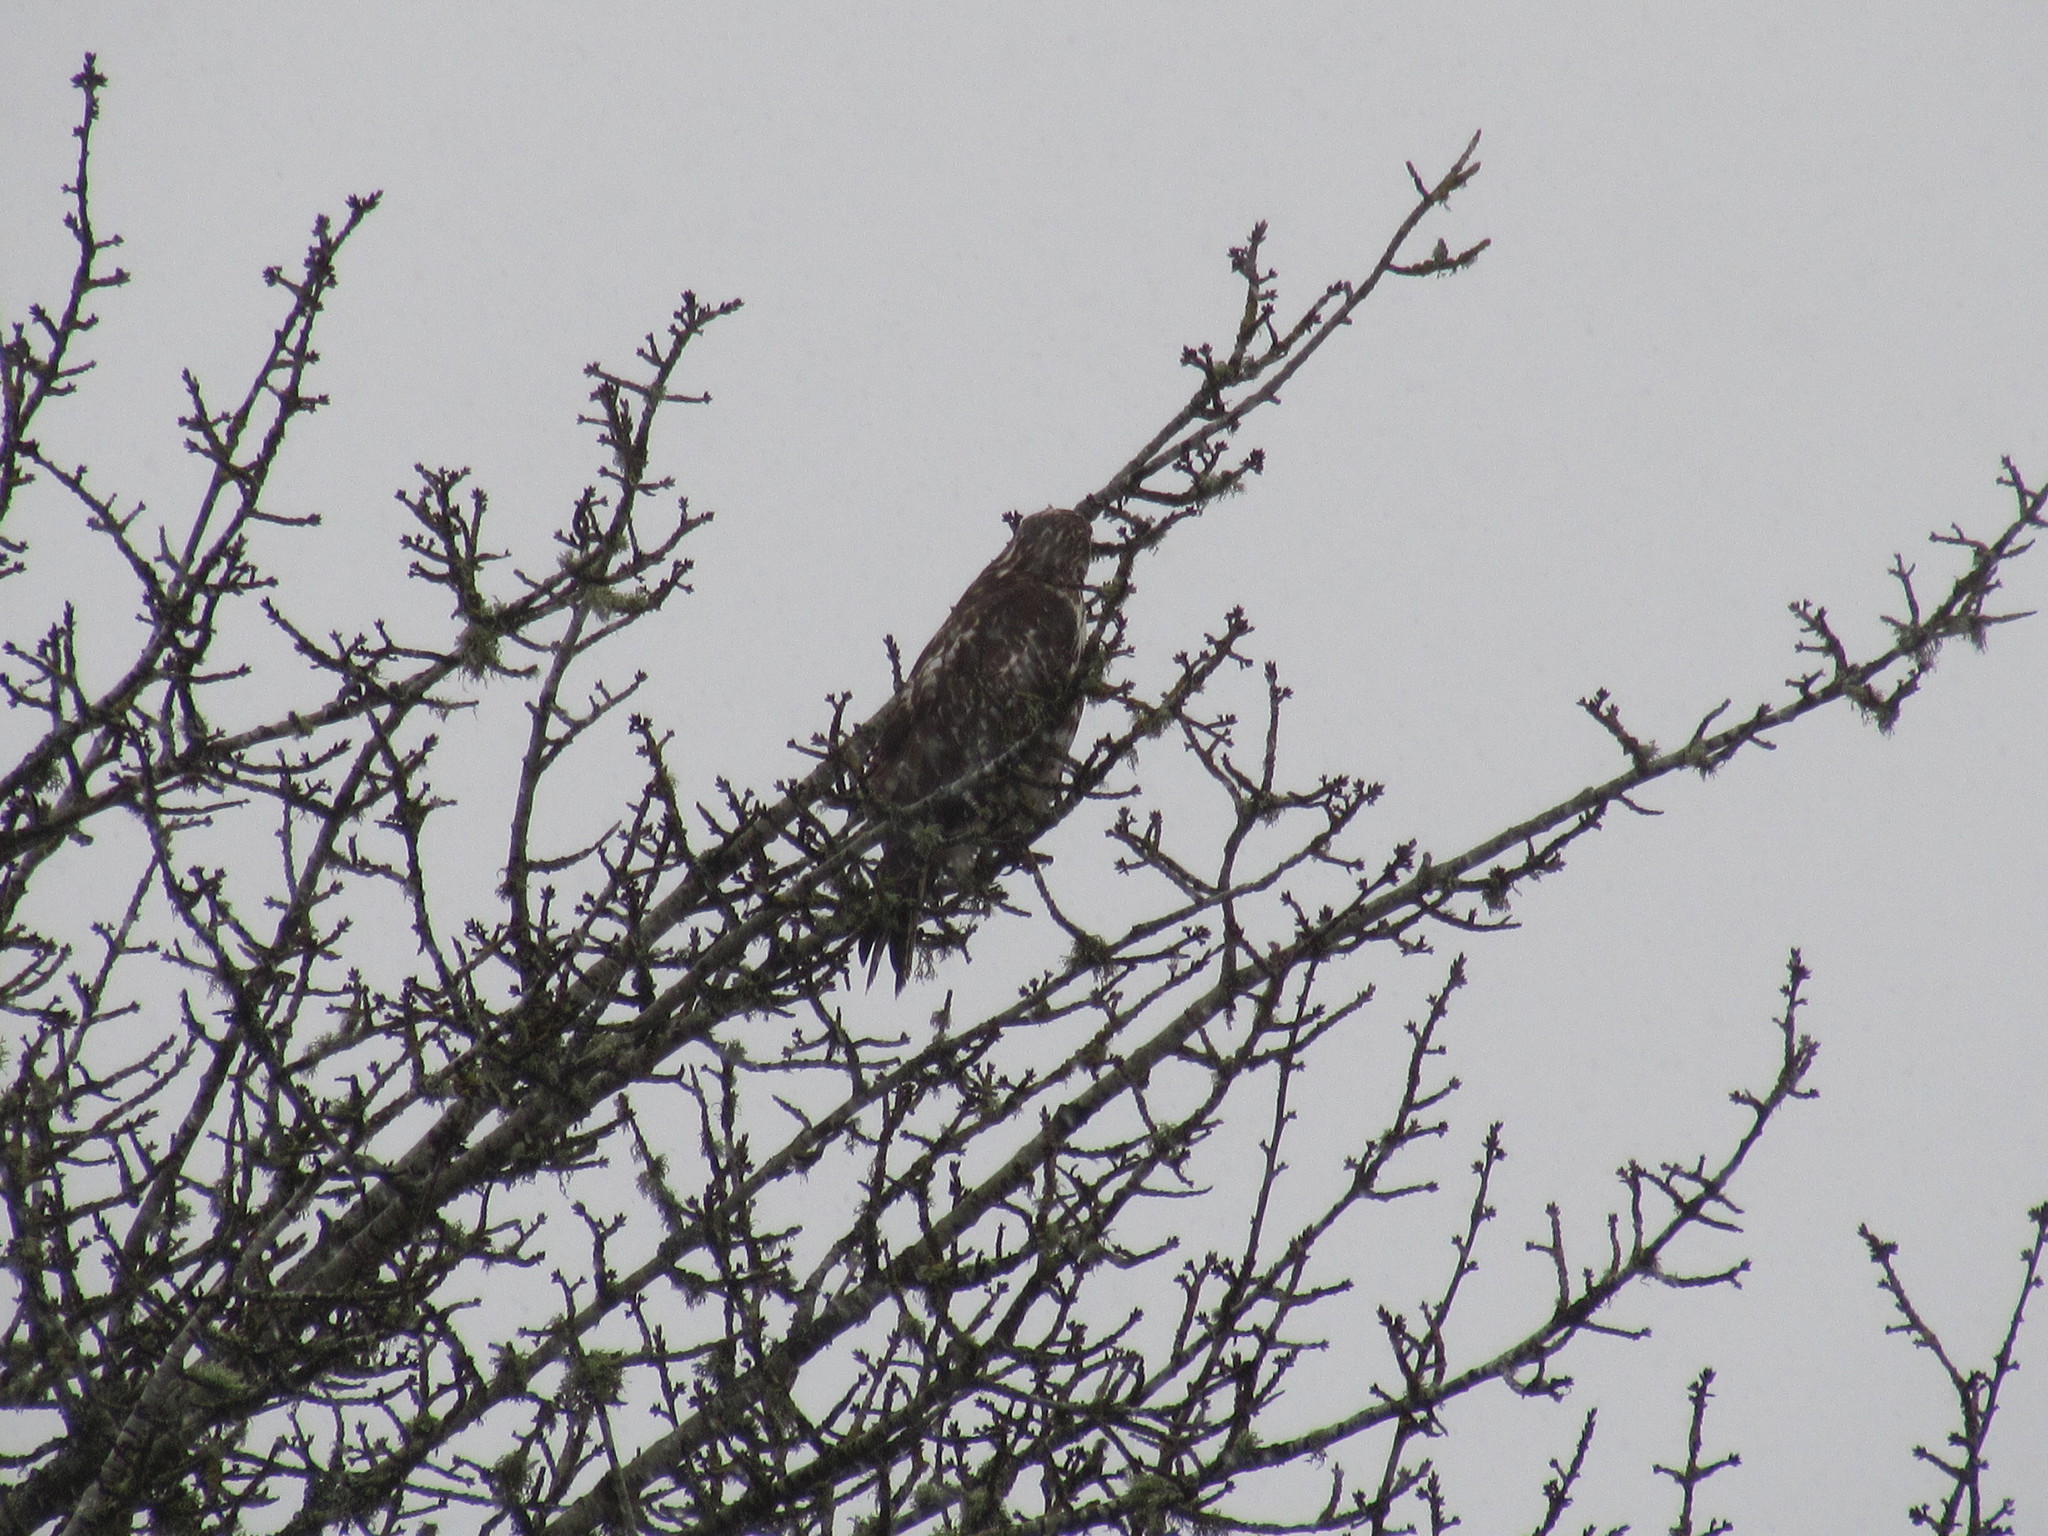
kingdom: Animalia
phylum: Chordata
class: Aves
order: Accipitriformes
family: Accipitridae
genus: Buteo
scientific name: Buteo jamaicensis
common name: Red-tailed hawk
